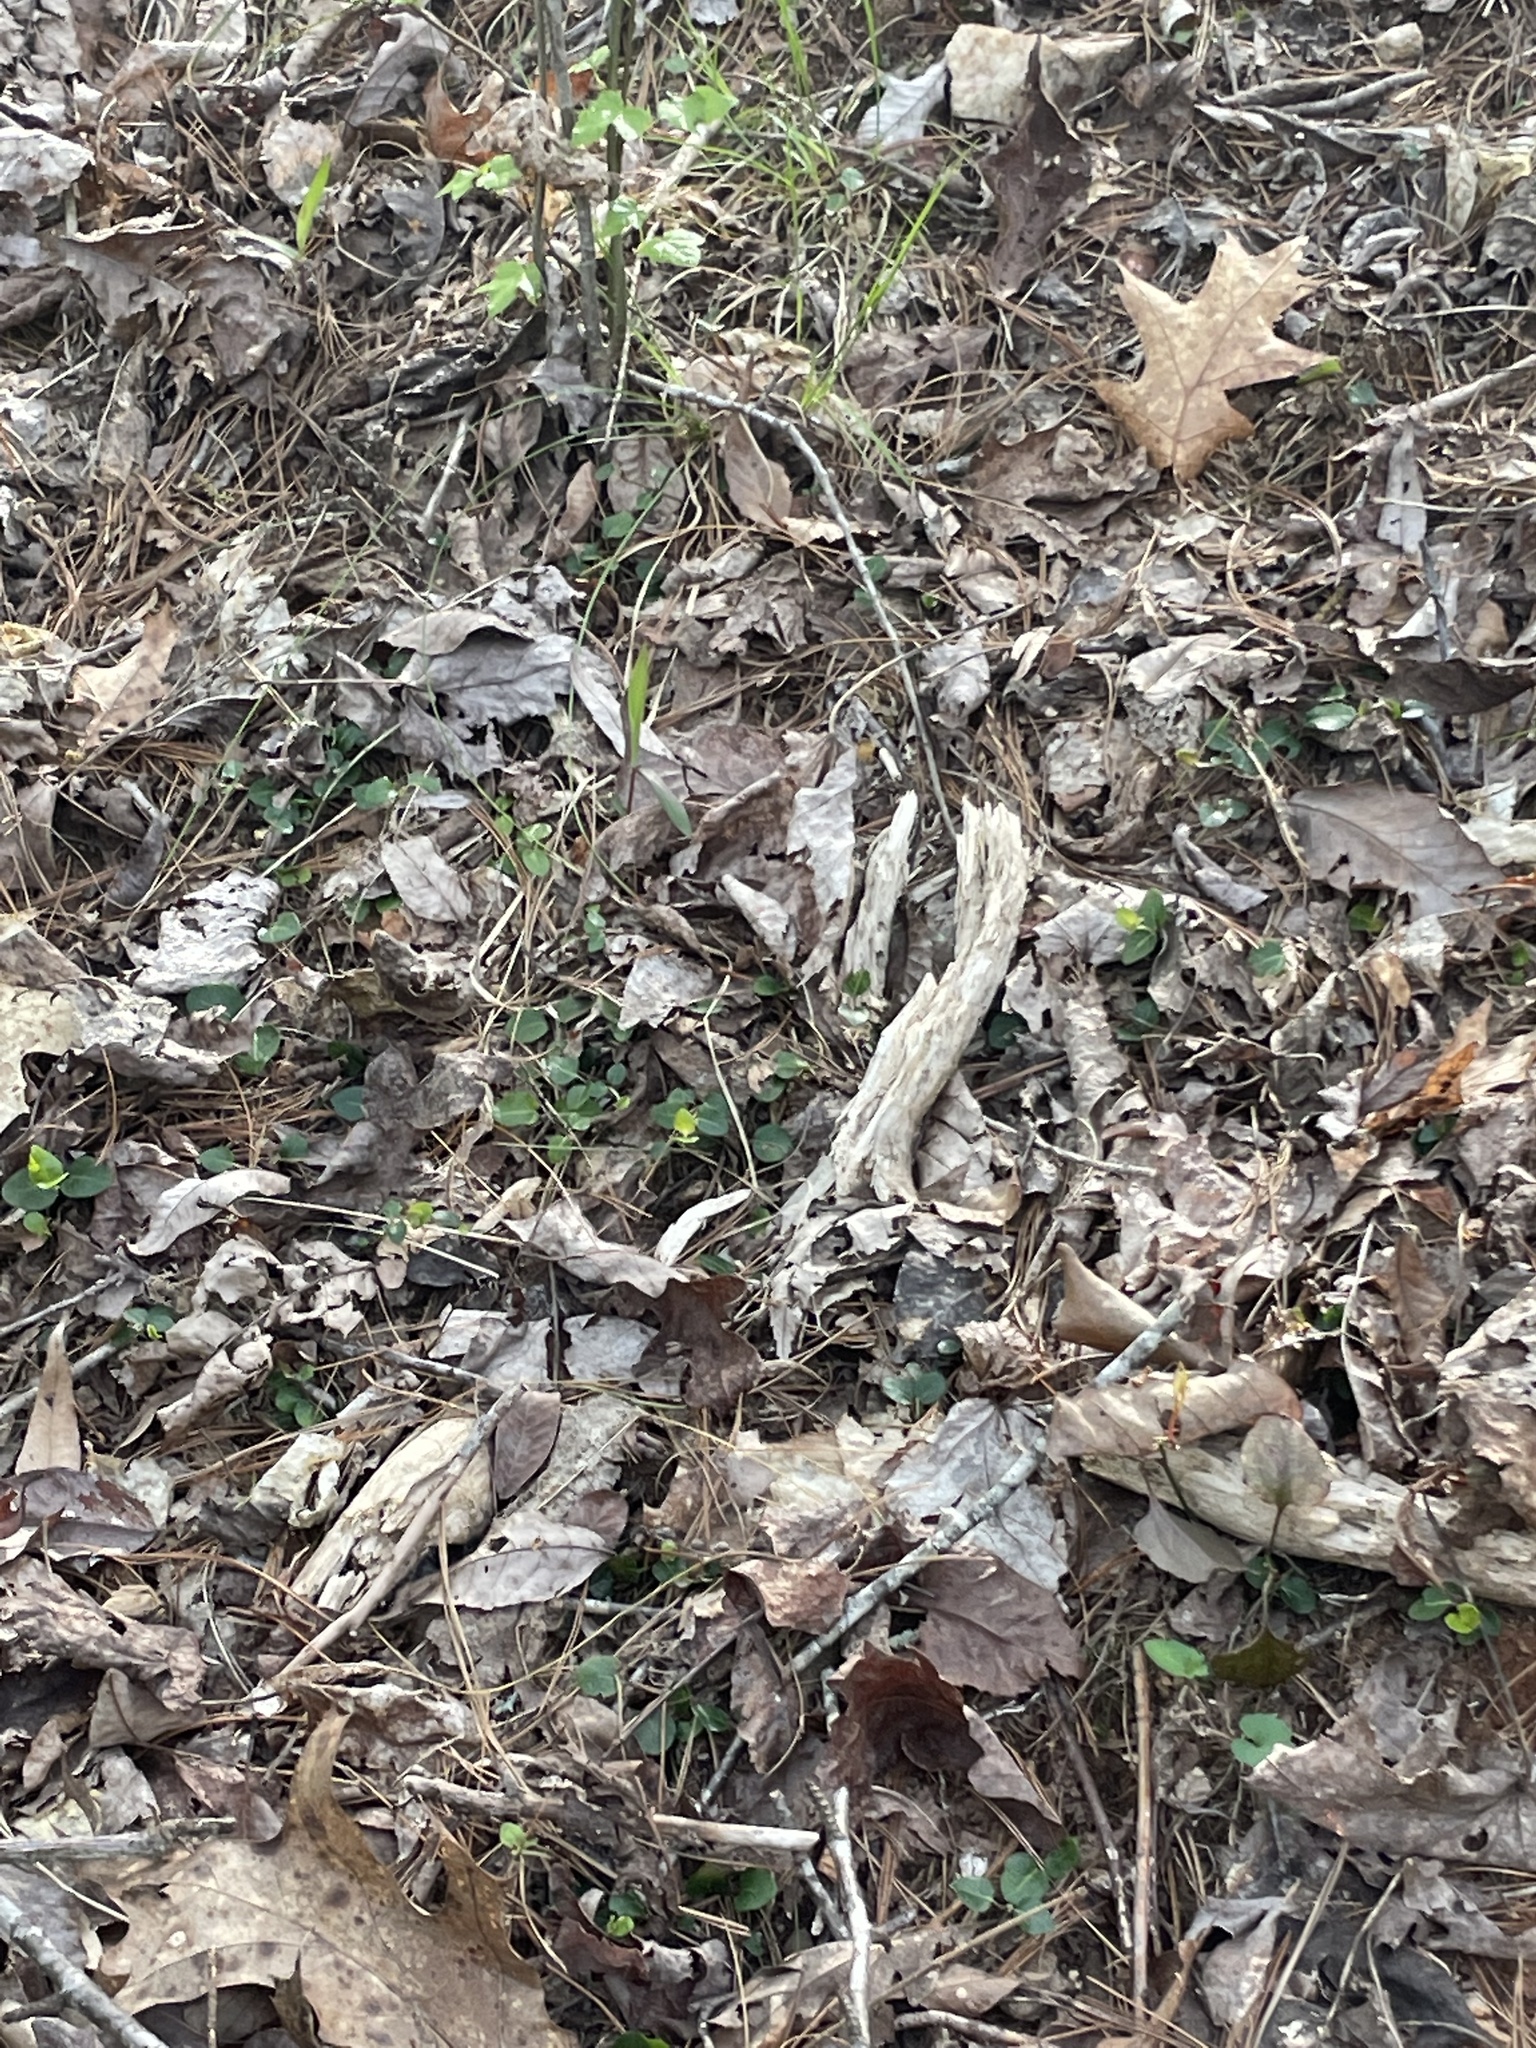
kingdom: Plantae
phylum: Tracheophyta
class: Magnoliopsida
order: Gentianales
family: Rubiaceae
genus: Mitchella
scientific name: Mitchella repens
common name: Partridge-berry
